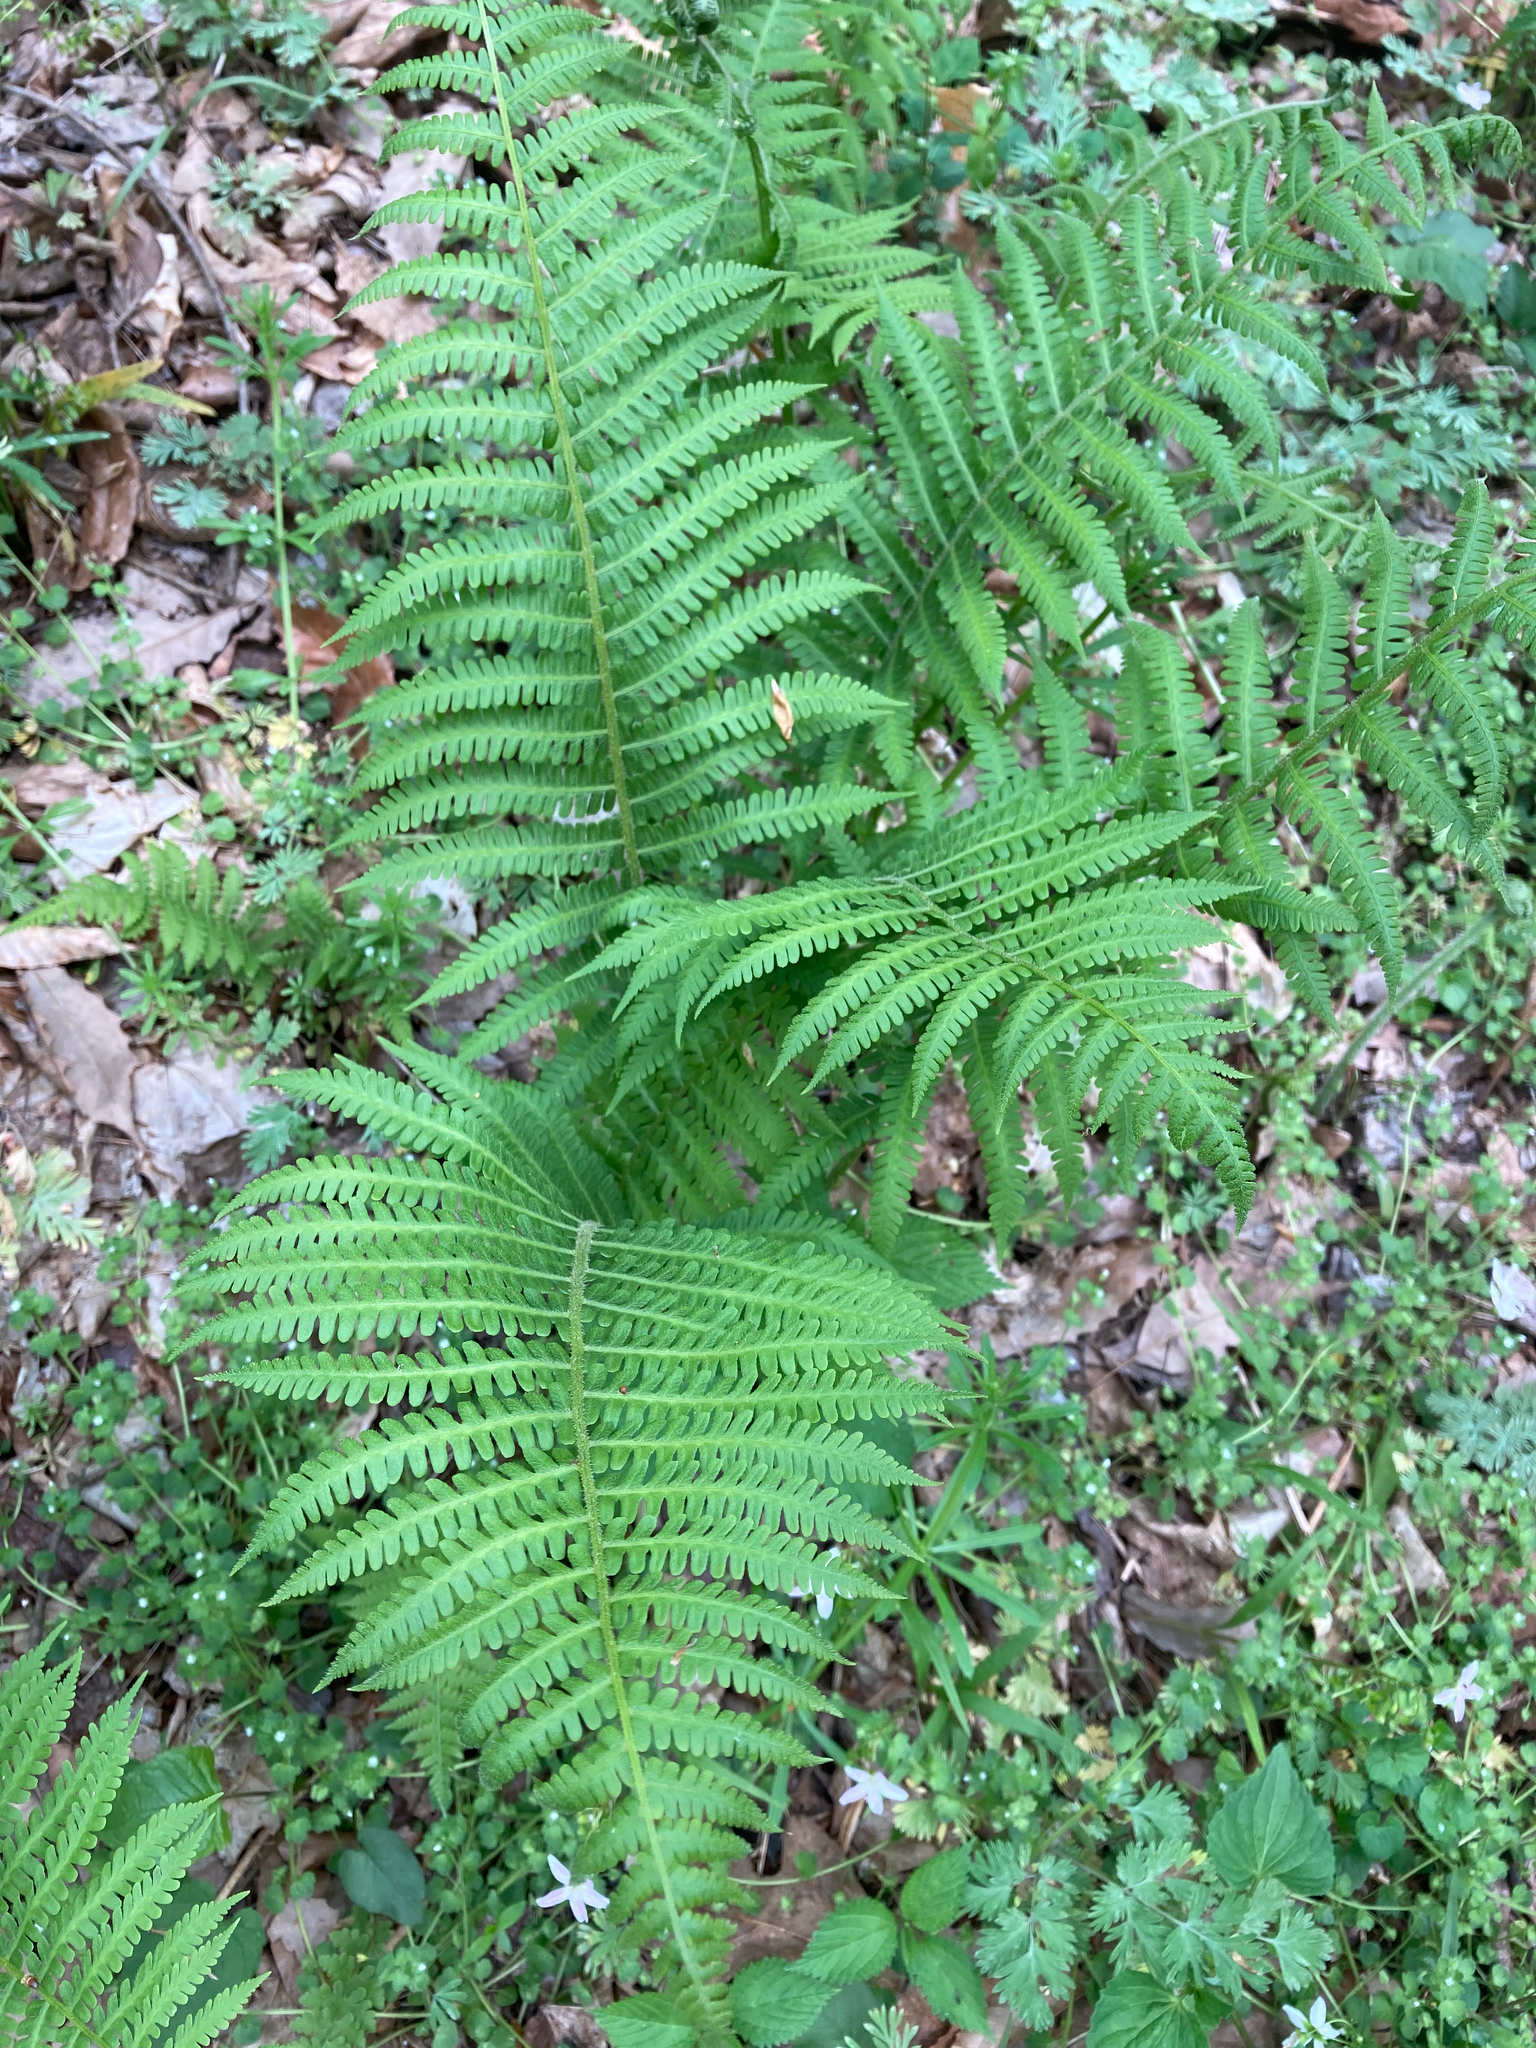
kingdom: Plantae
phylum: Tracheophyta
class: Polypodiopsida
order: Osmundales
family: Osmundaceae
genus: Osmundastrum
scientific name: Osmundastrum cinnamomeum
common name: Cinnamon fern
